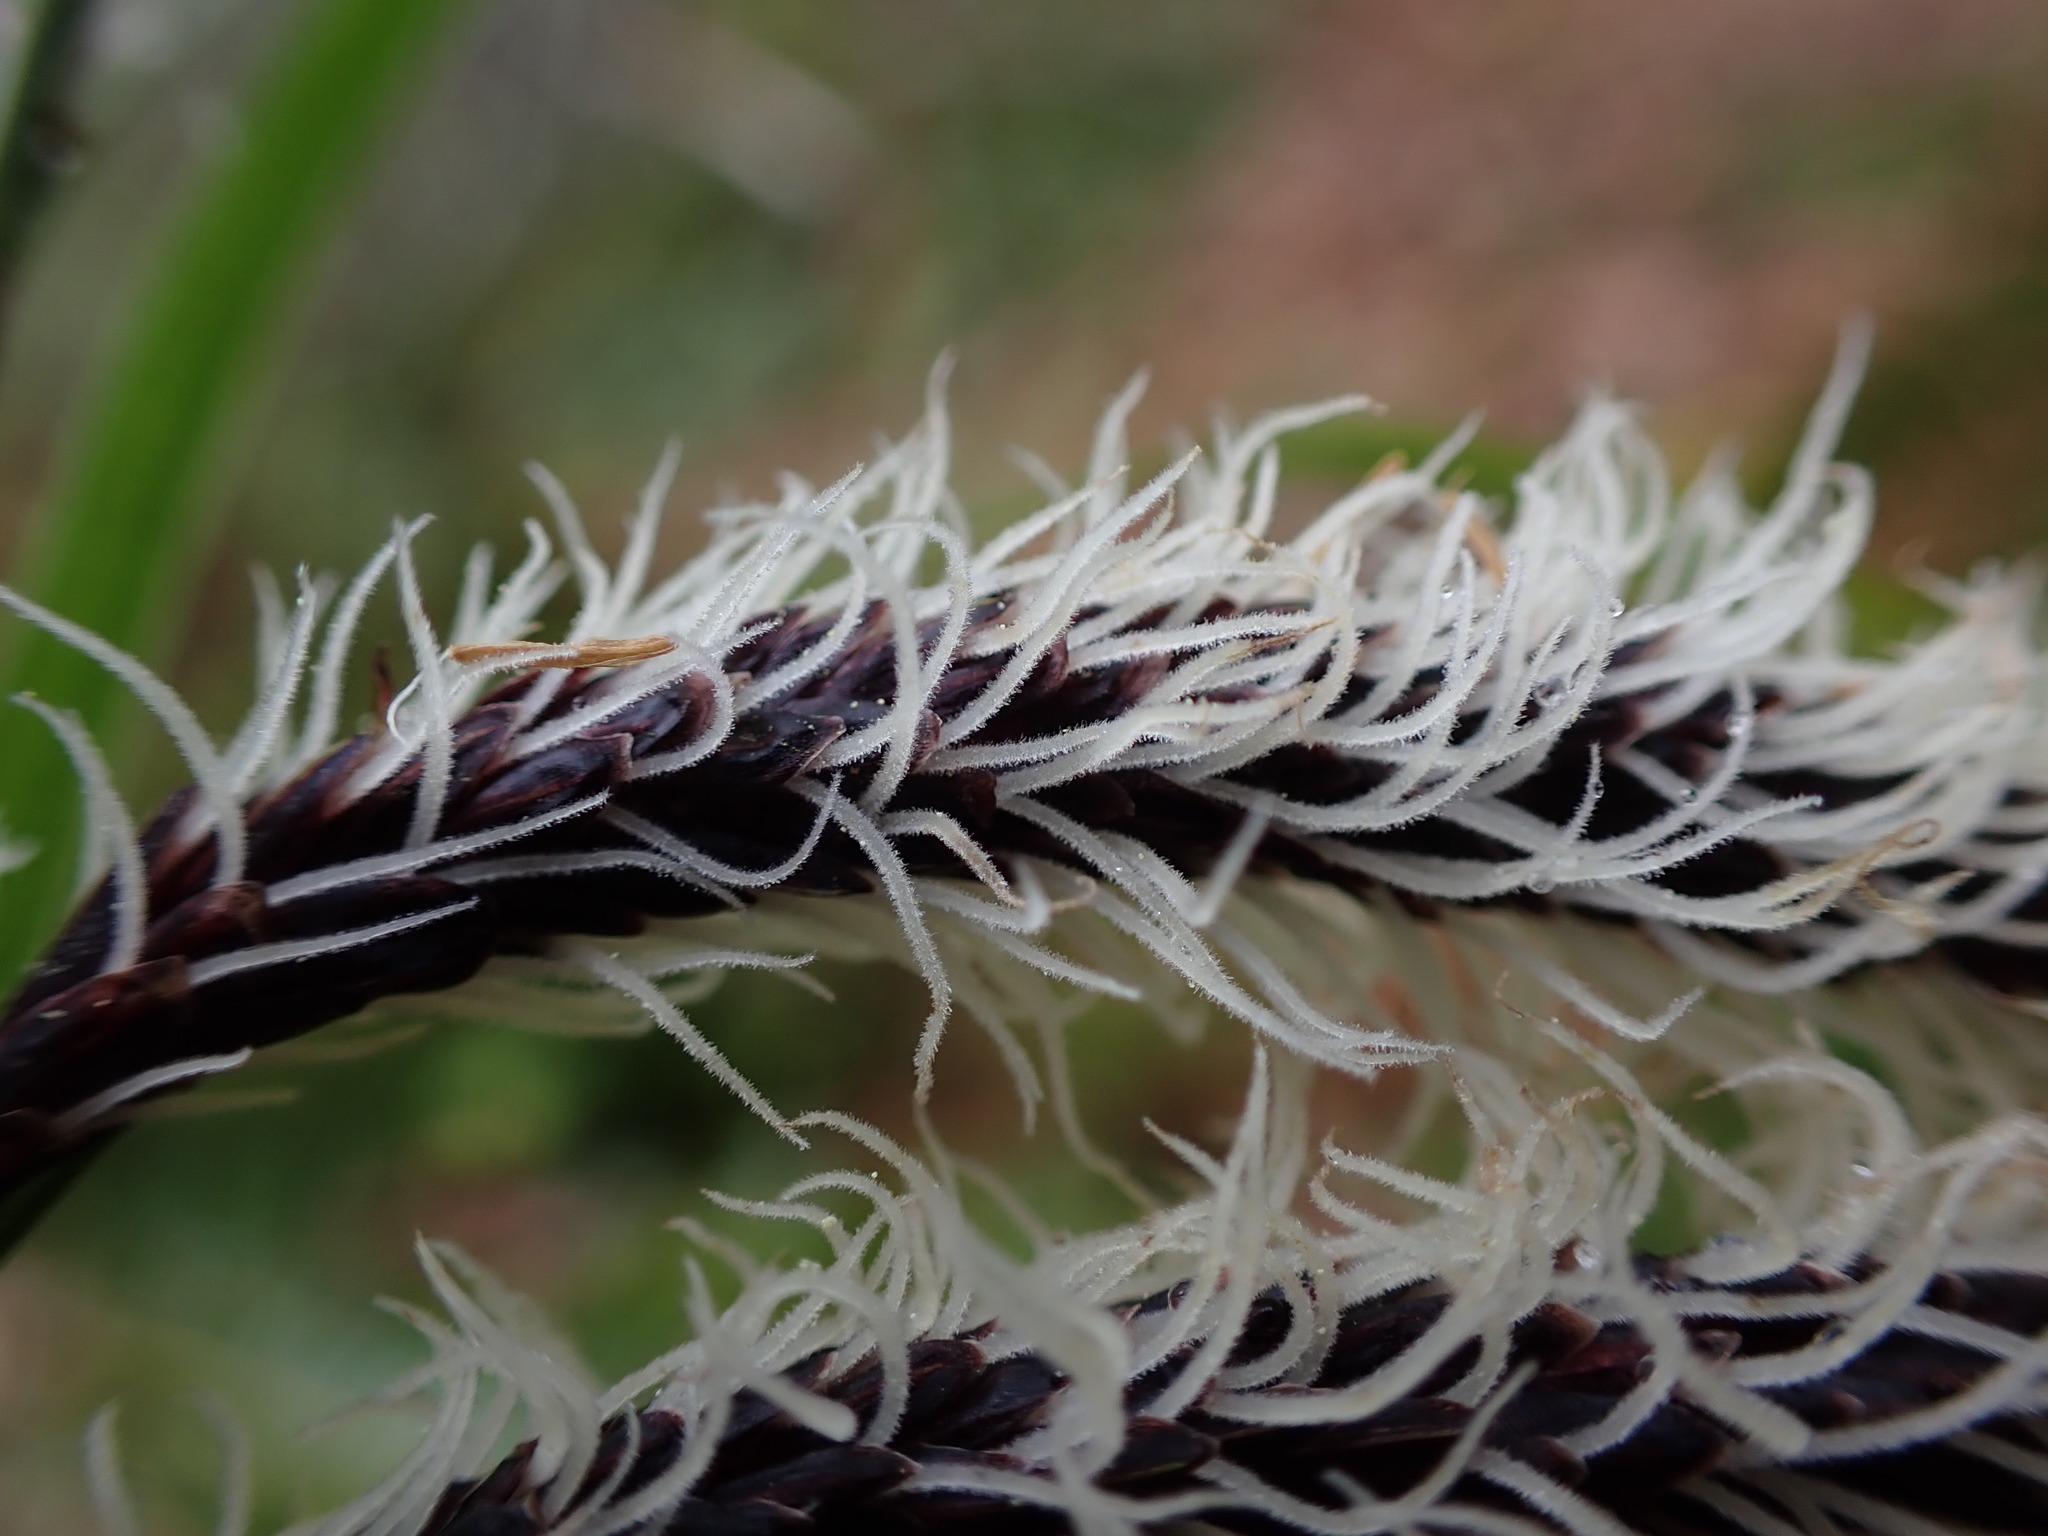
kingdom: Plantae
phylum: Tracheophyta
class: Liliopsida
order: Poales
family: Cyperaceae
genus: Carex
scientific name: Carex obnupta
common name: Slough sedge
